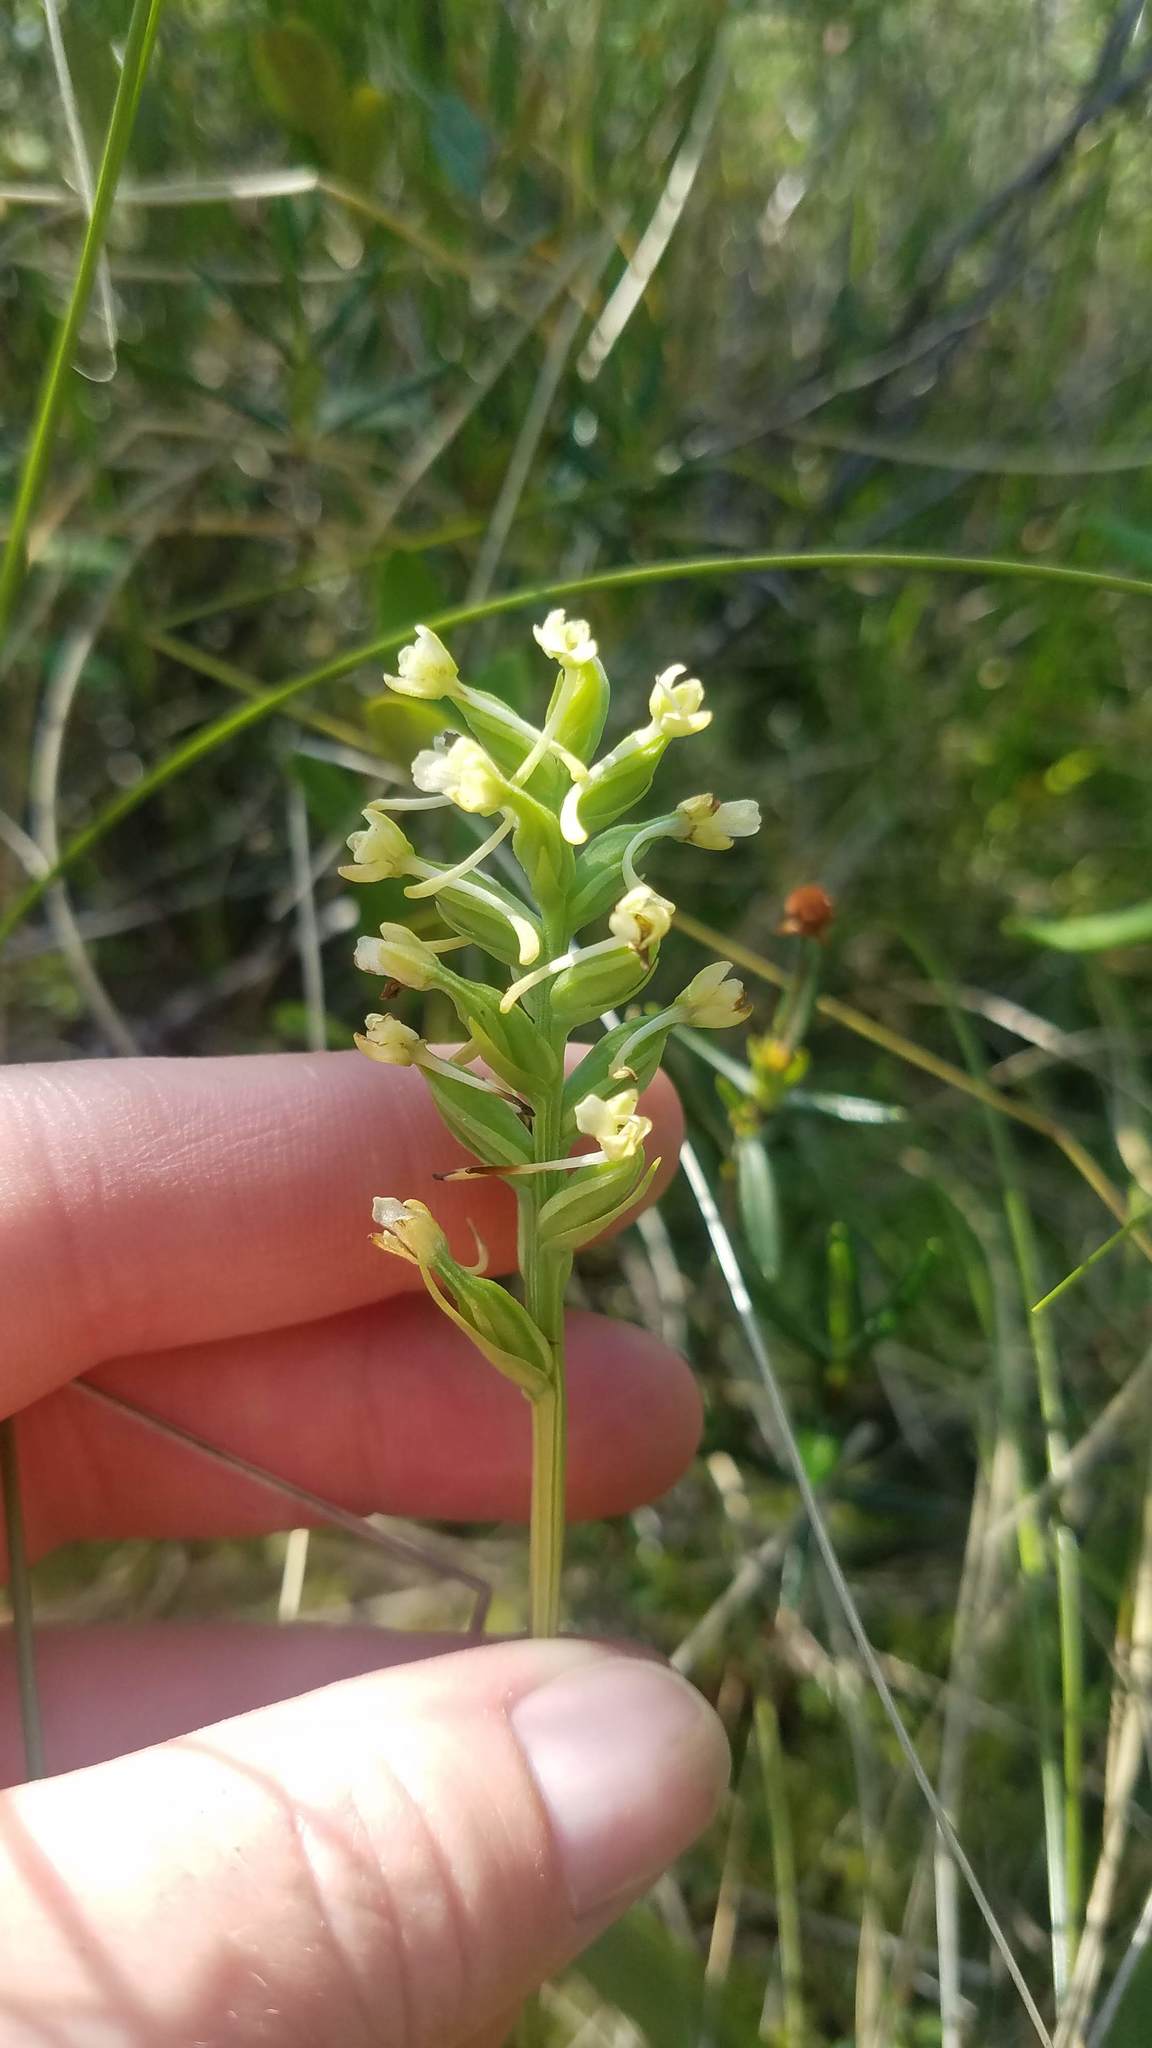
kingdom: Plantae
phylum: Tracheophyta
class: Liliopsida
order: Asparagales
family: Orchidaceae
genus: Platanthera
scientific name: Platanthera clavellata
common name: Club-spur orchid
